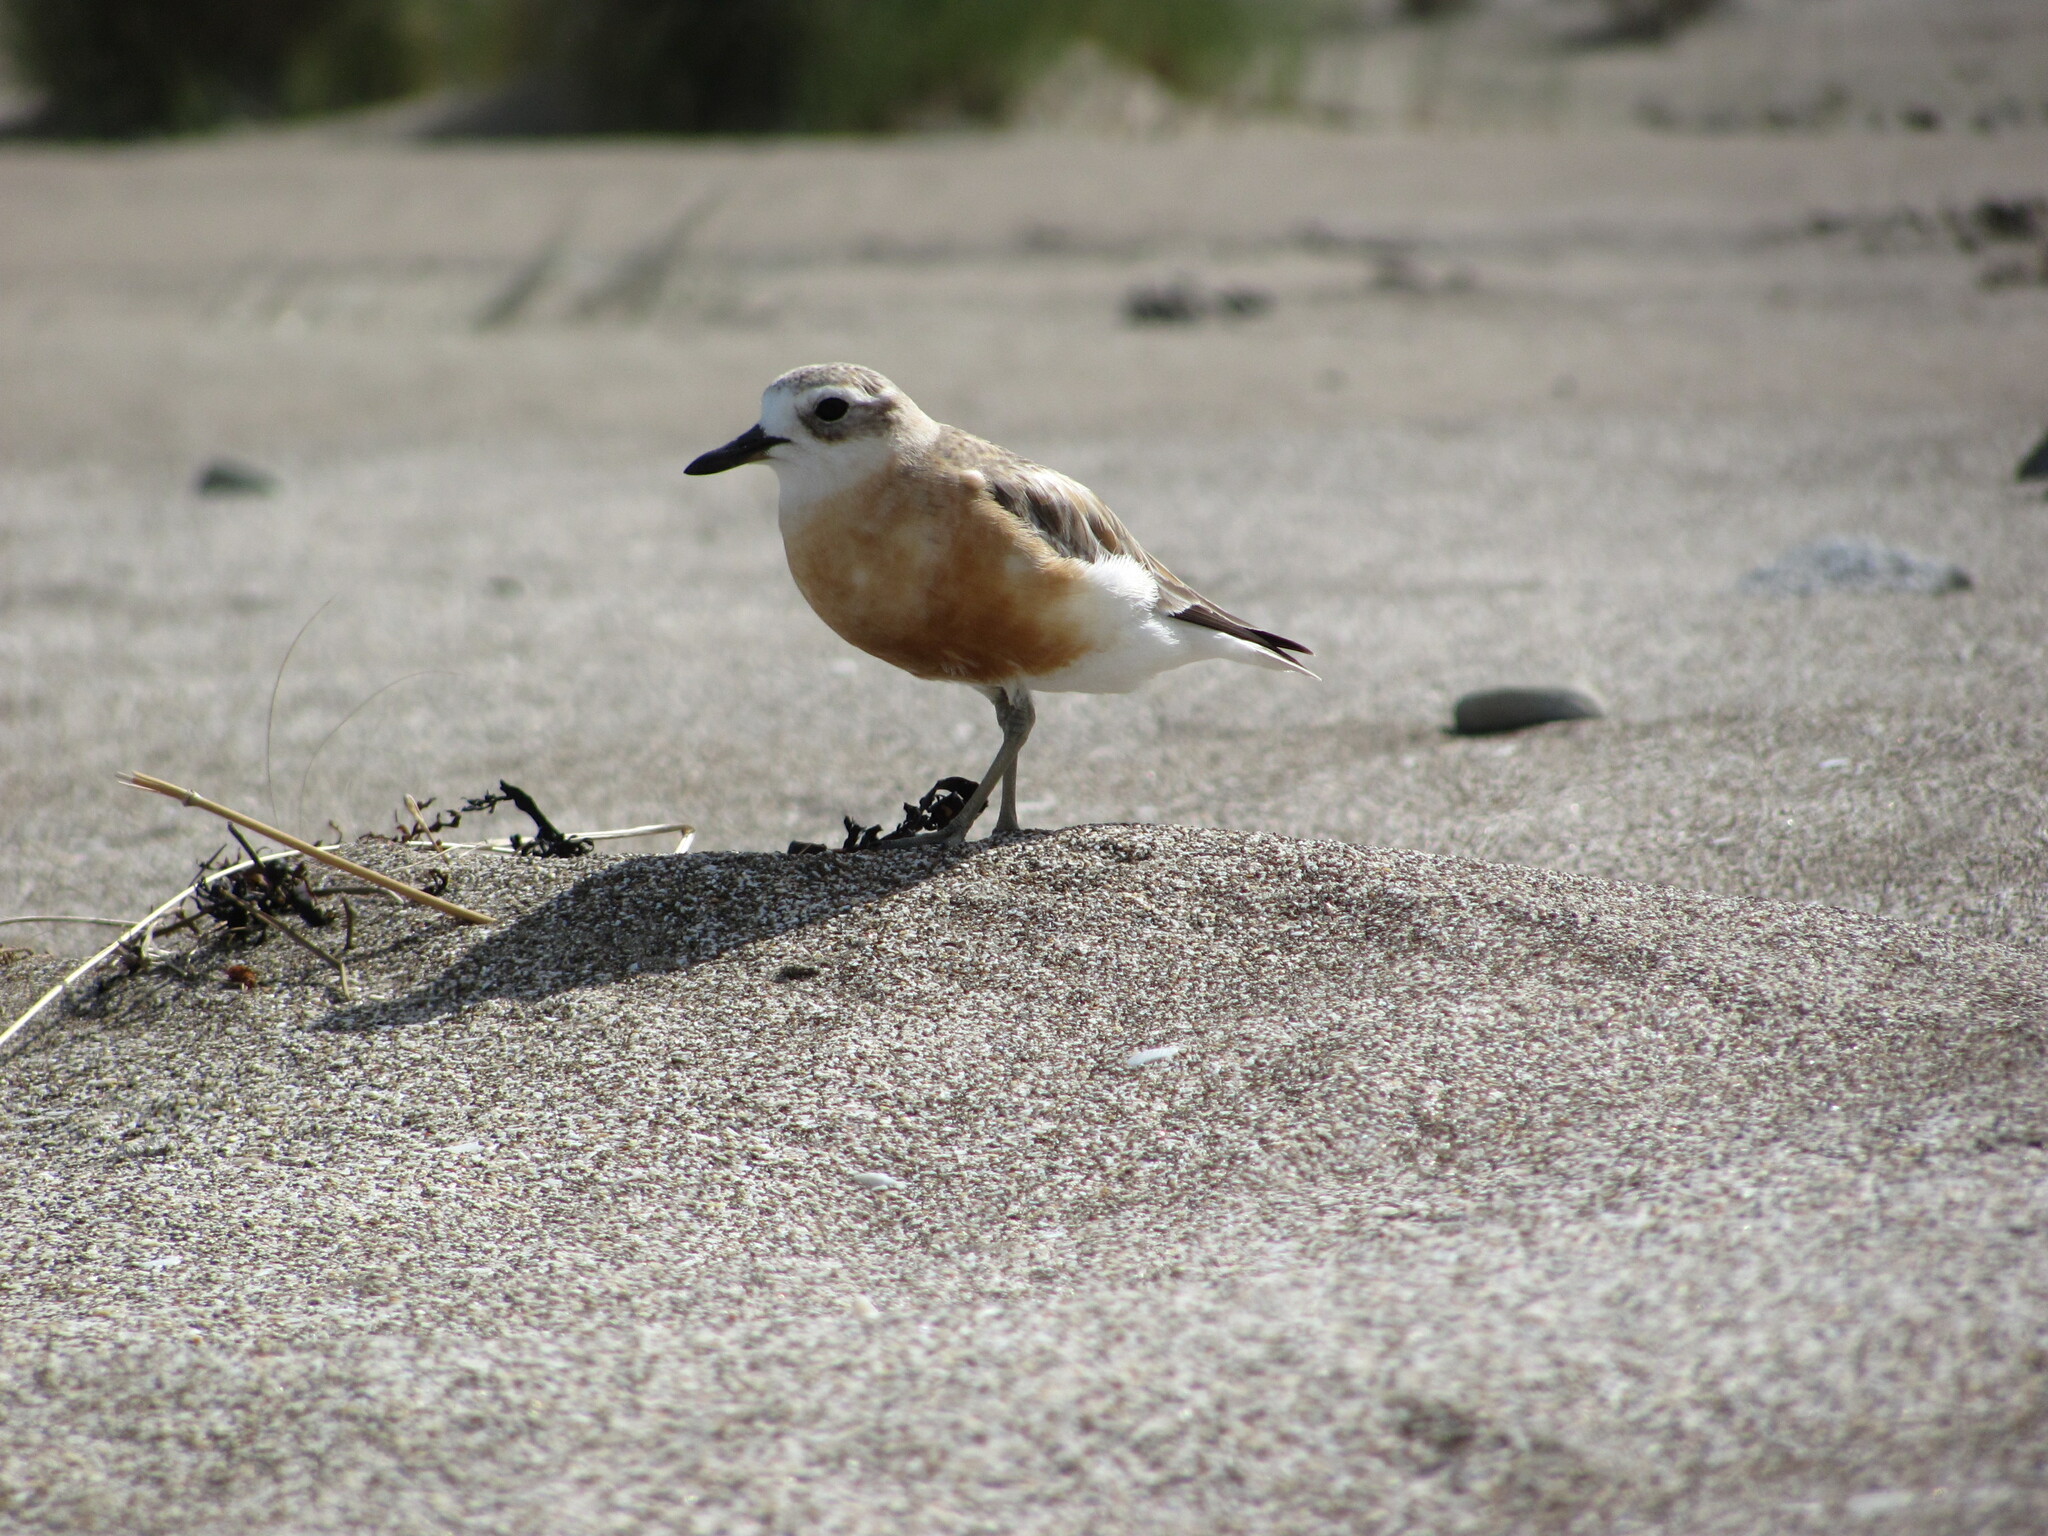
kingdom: Animalia
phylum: Chordata
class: Aves
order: Charadriiformes
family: Charadriidae
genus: Anarhynchus
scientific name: Anarhynchus
